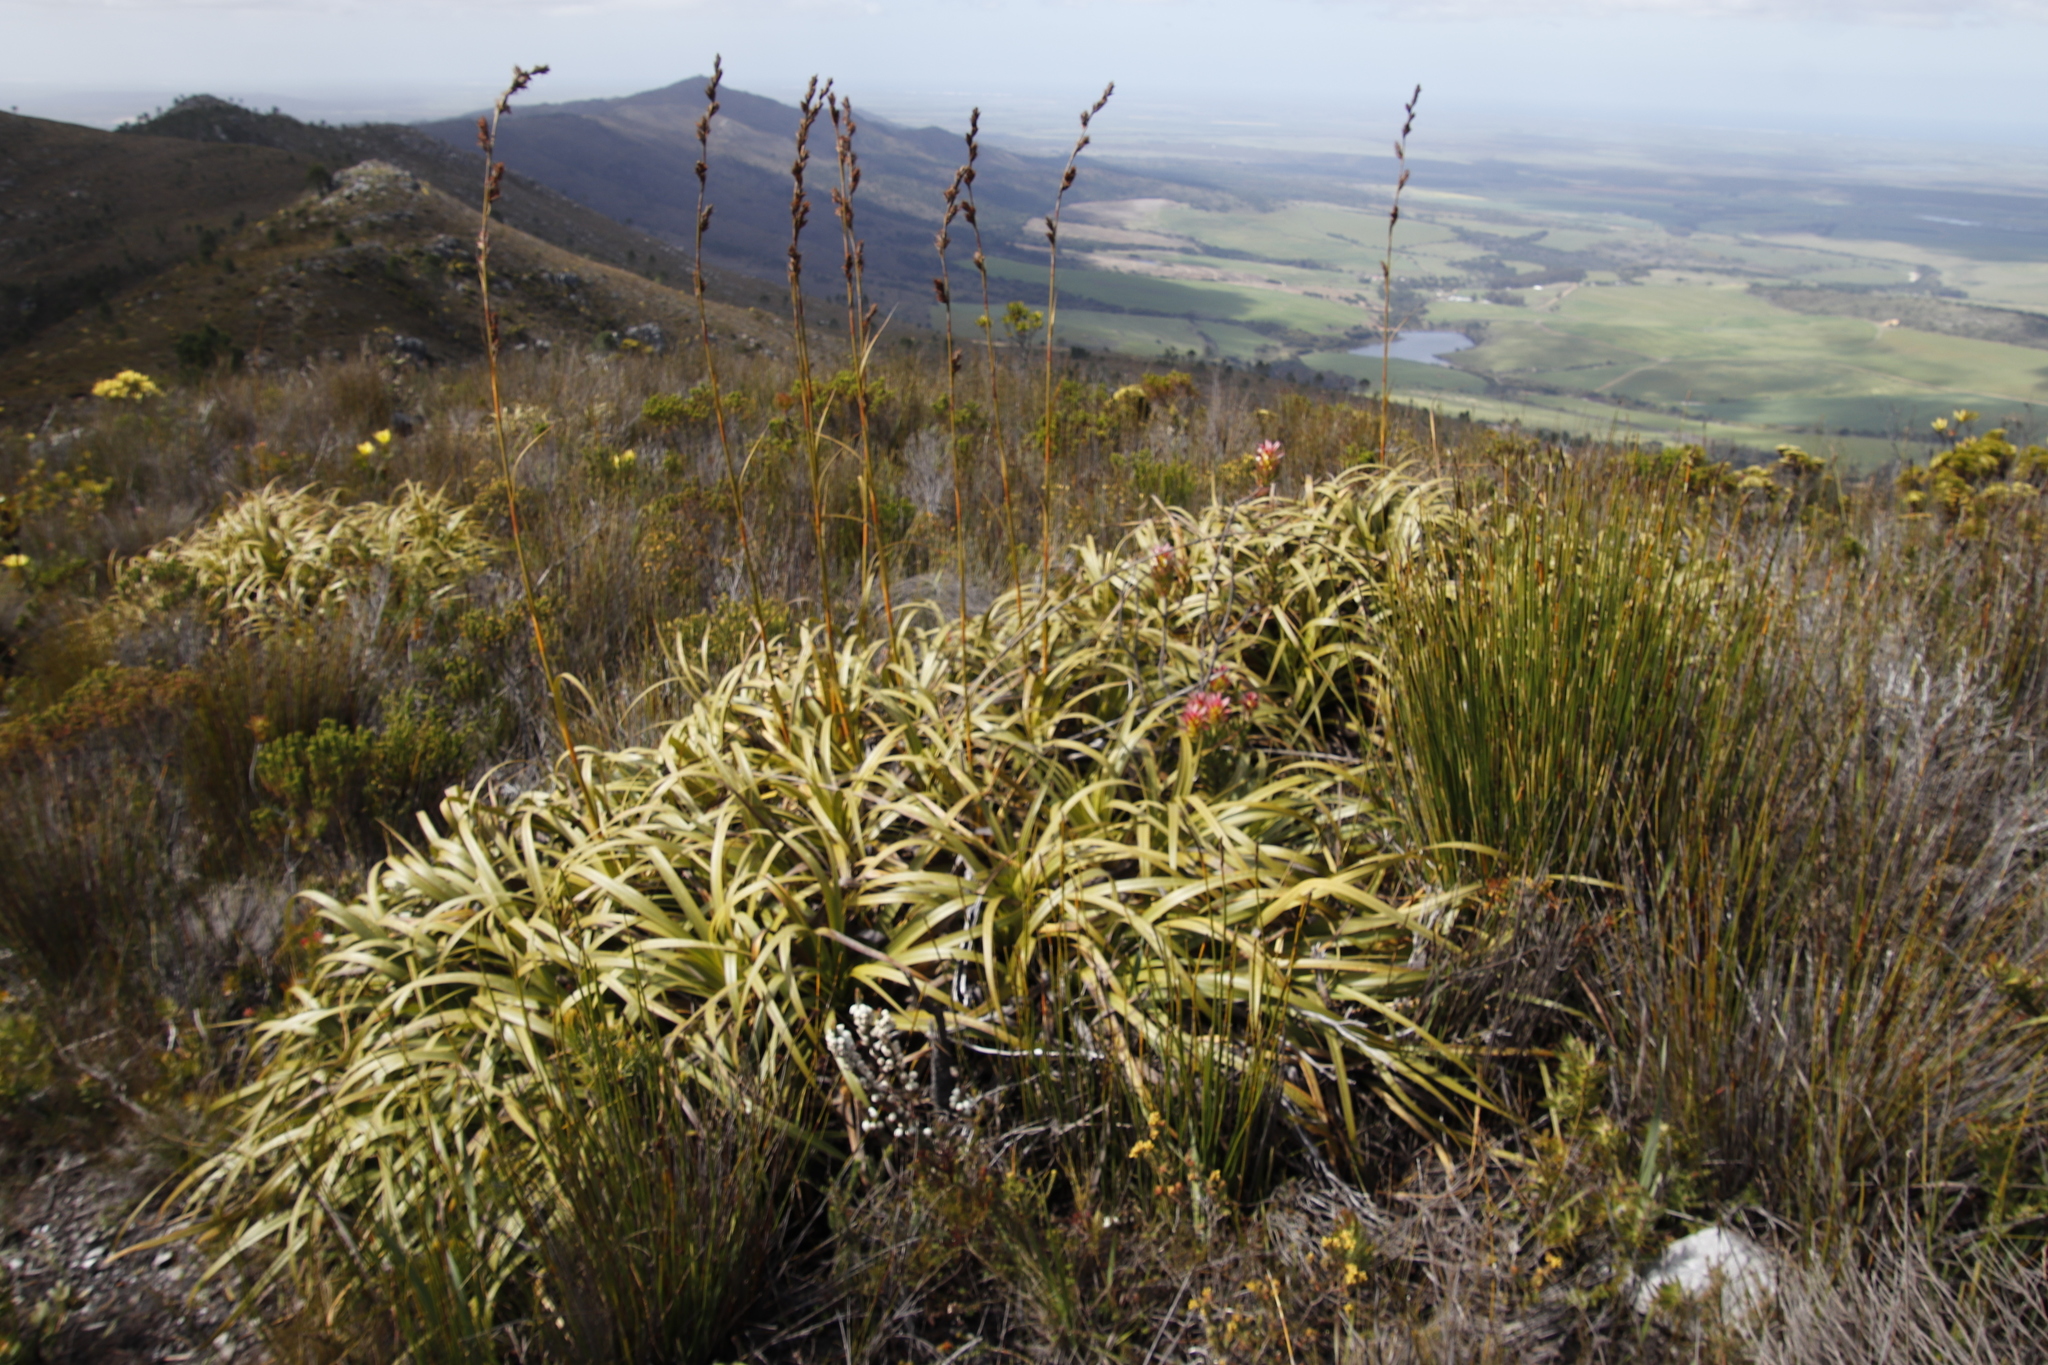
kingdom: Plantae
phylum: Tracheophyta
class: Liliopsida
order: Poales
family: Cyperaceae
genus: Tetraria
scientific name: Tetraria thermalis
